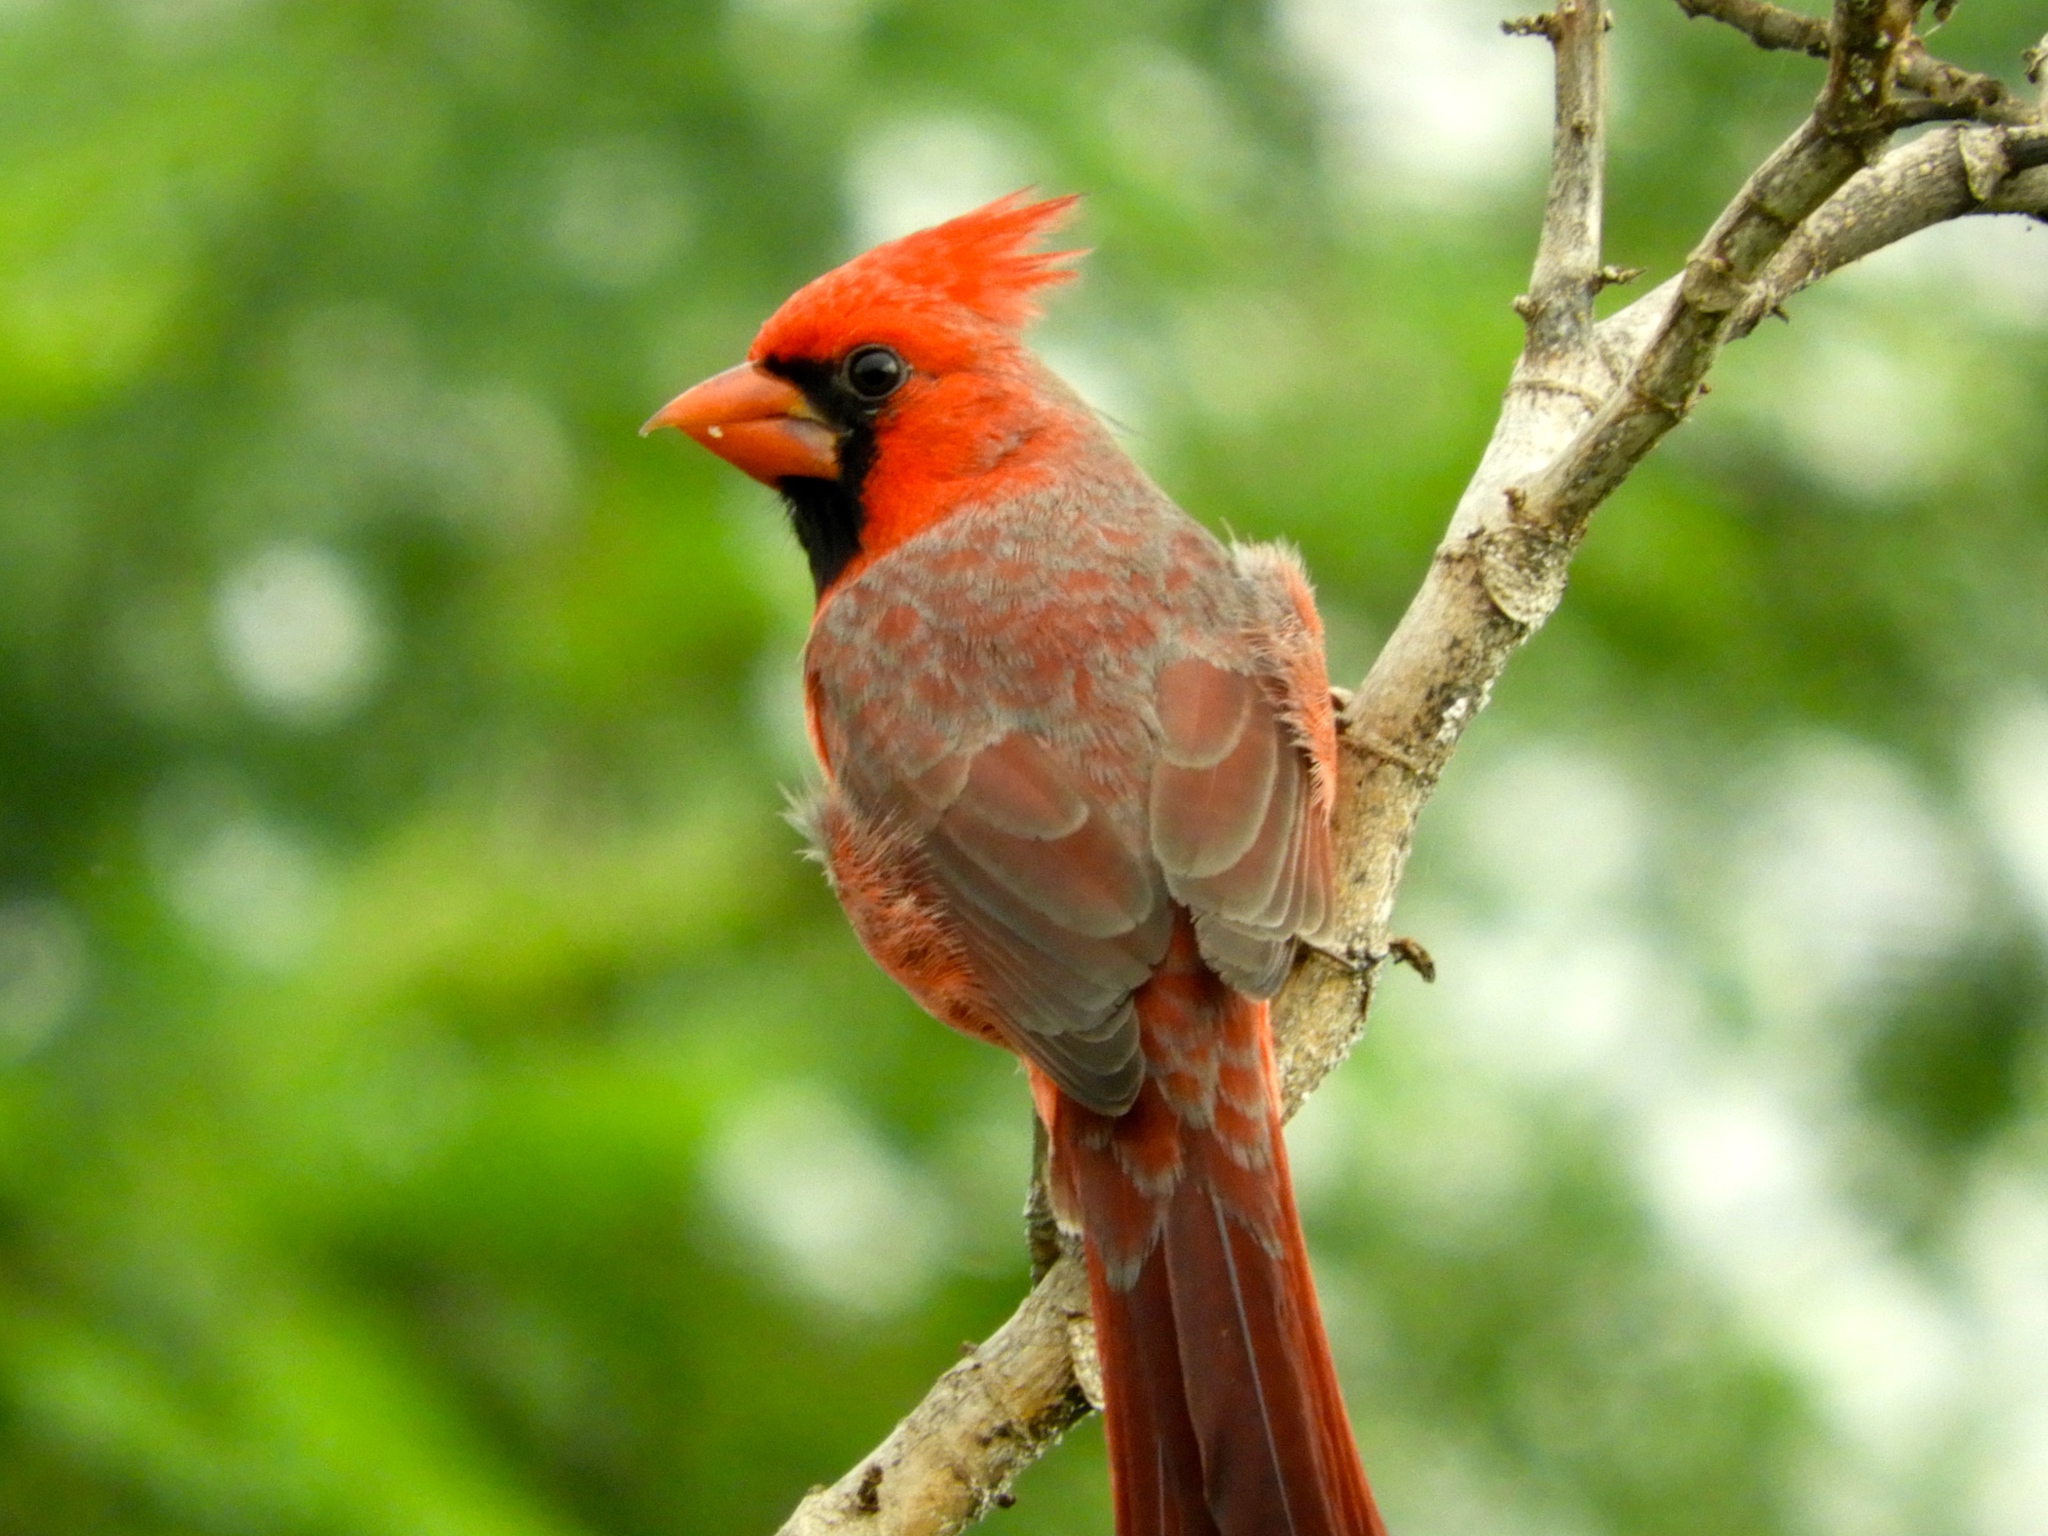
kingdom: Animalia
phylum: Chordata
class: Aves
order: Passeriformes
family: Cardinalidae
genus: Cardinalis
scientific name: Cardinalis cardinalis
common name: Northern cardinal
